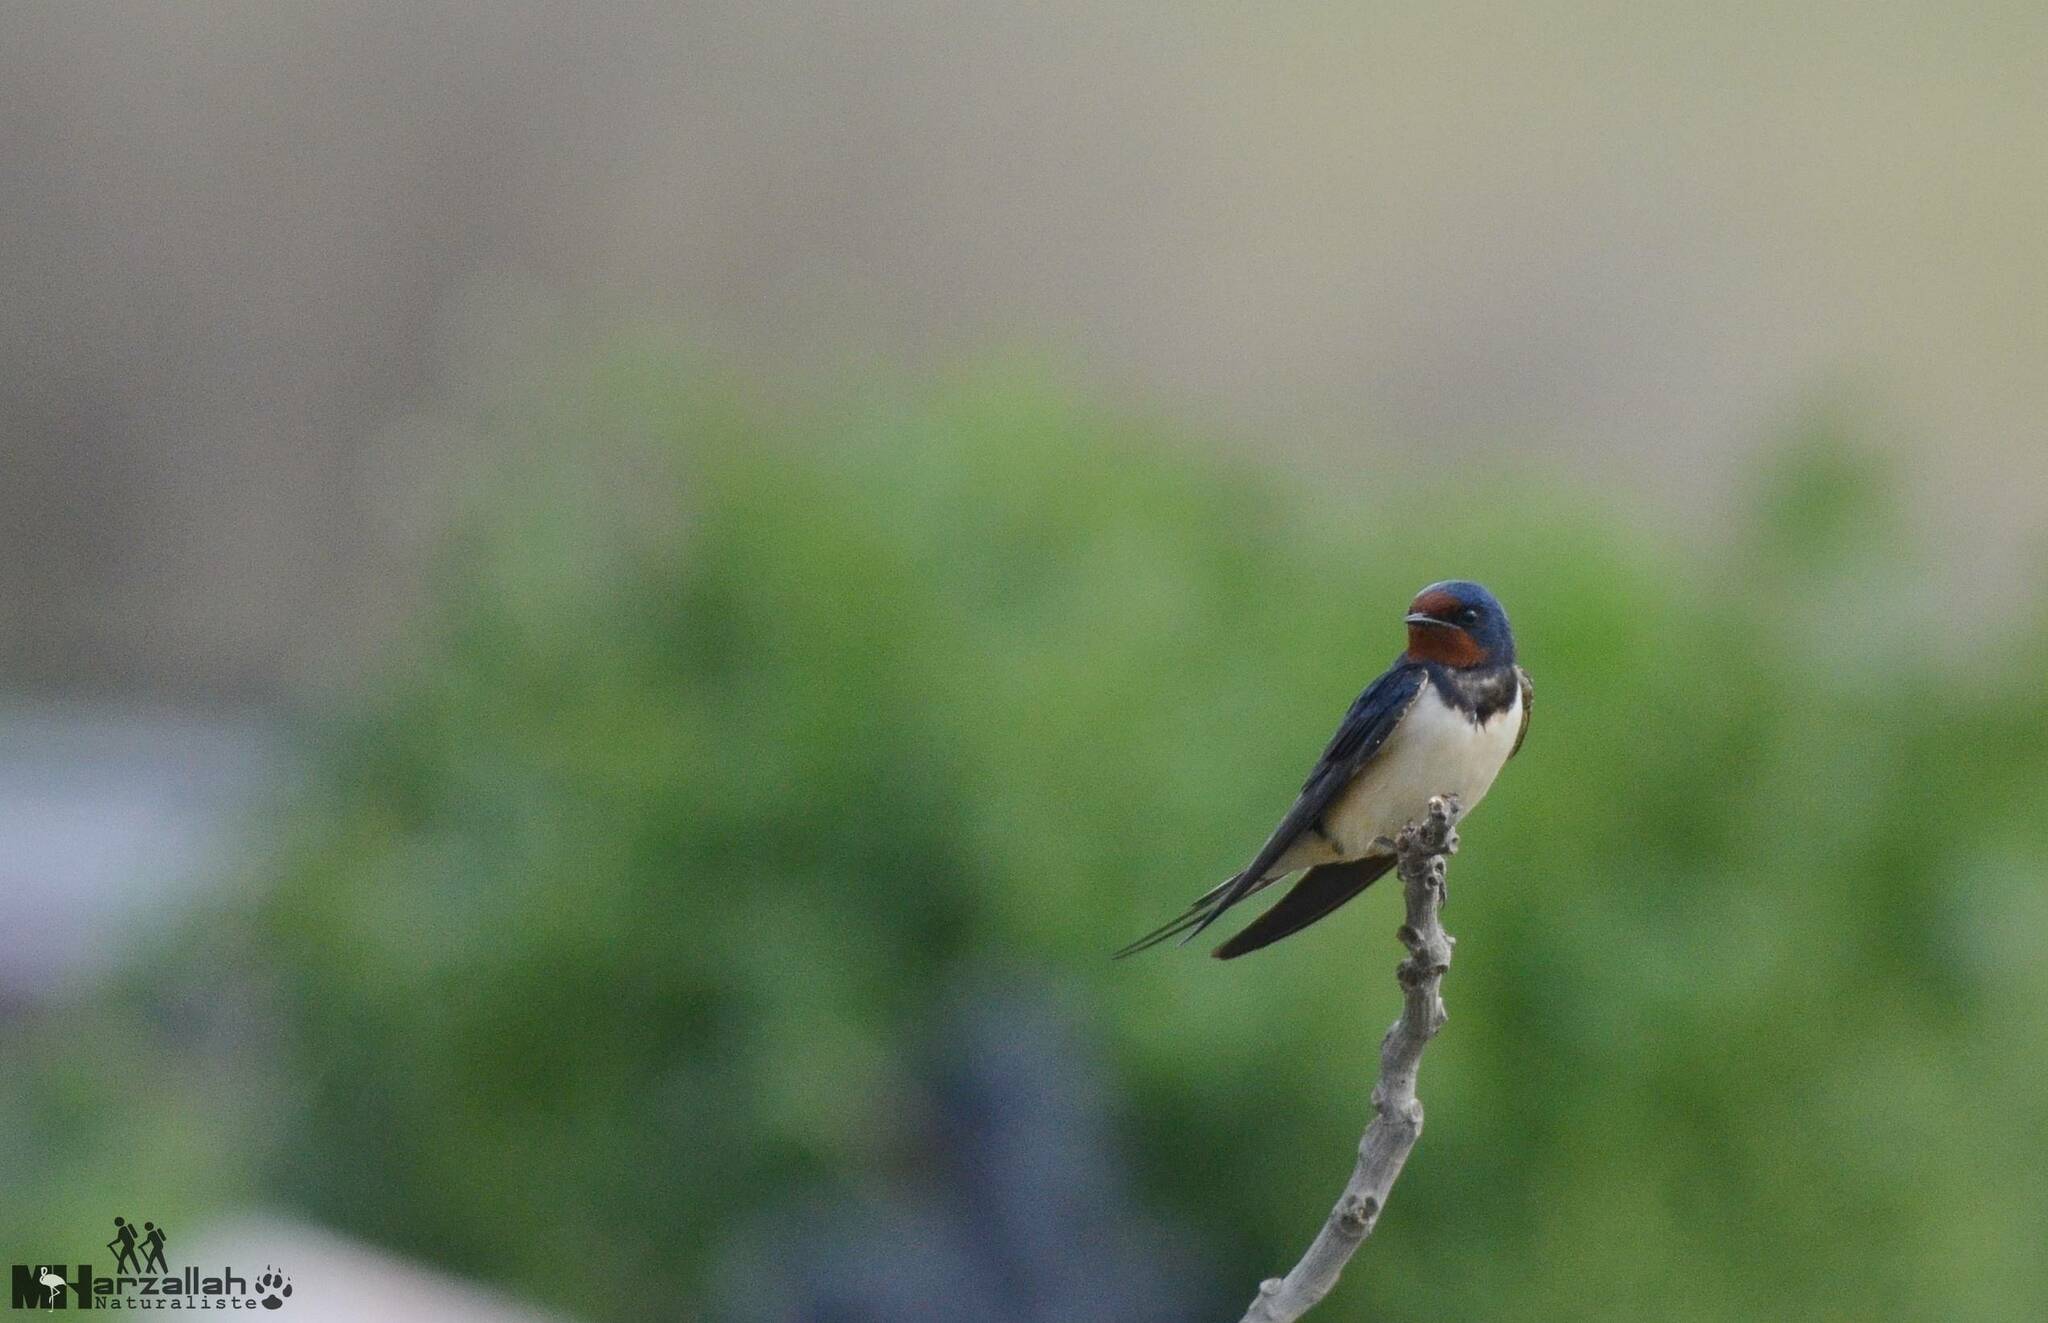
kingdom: Animalia
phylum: Chordata
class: Aves
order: Passeriformes
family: Hirundinidae
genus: Hirundo
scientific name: Hirundo rustica
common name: Barn swallow
